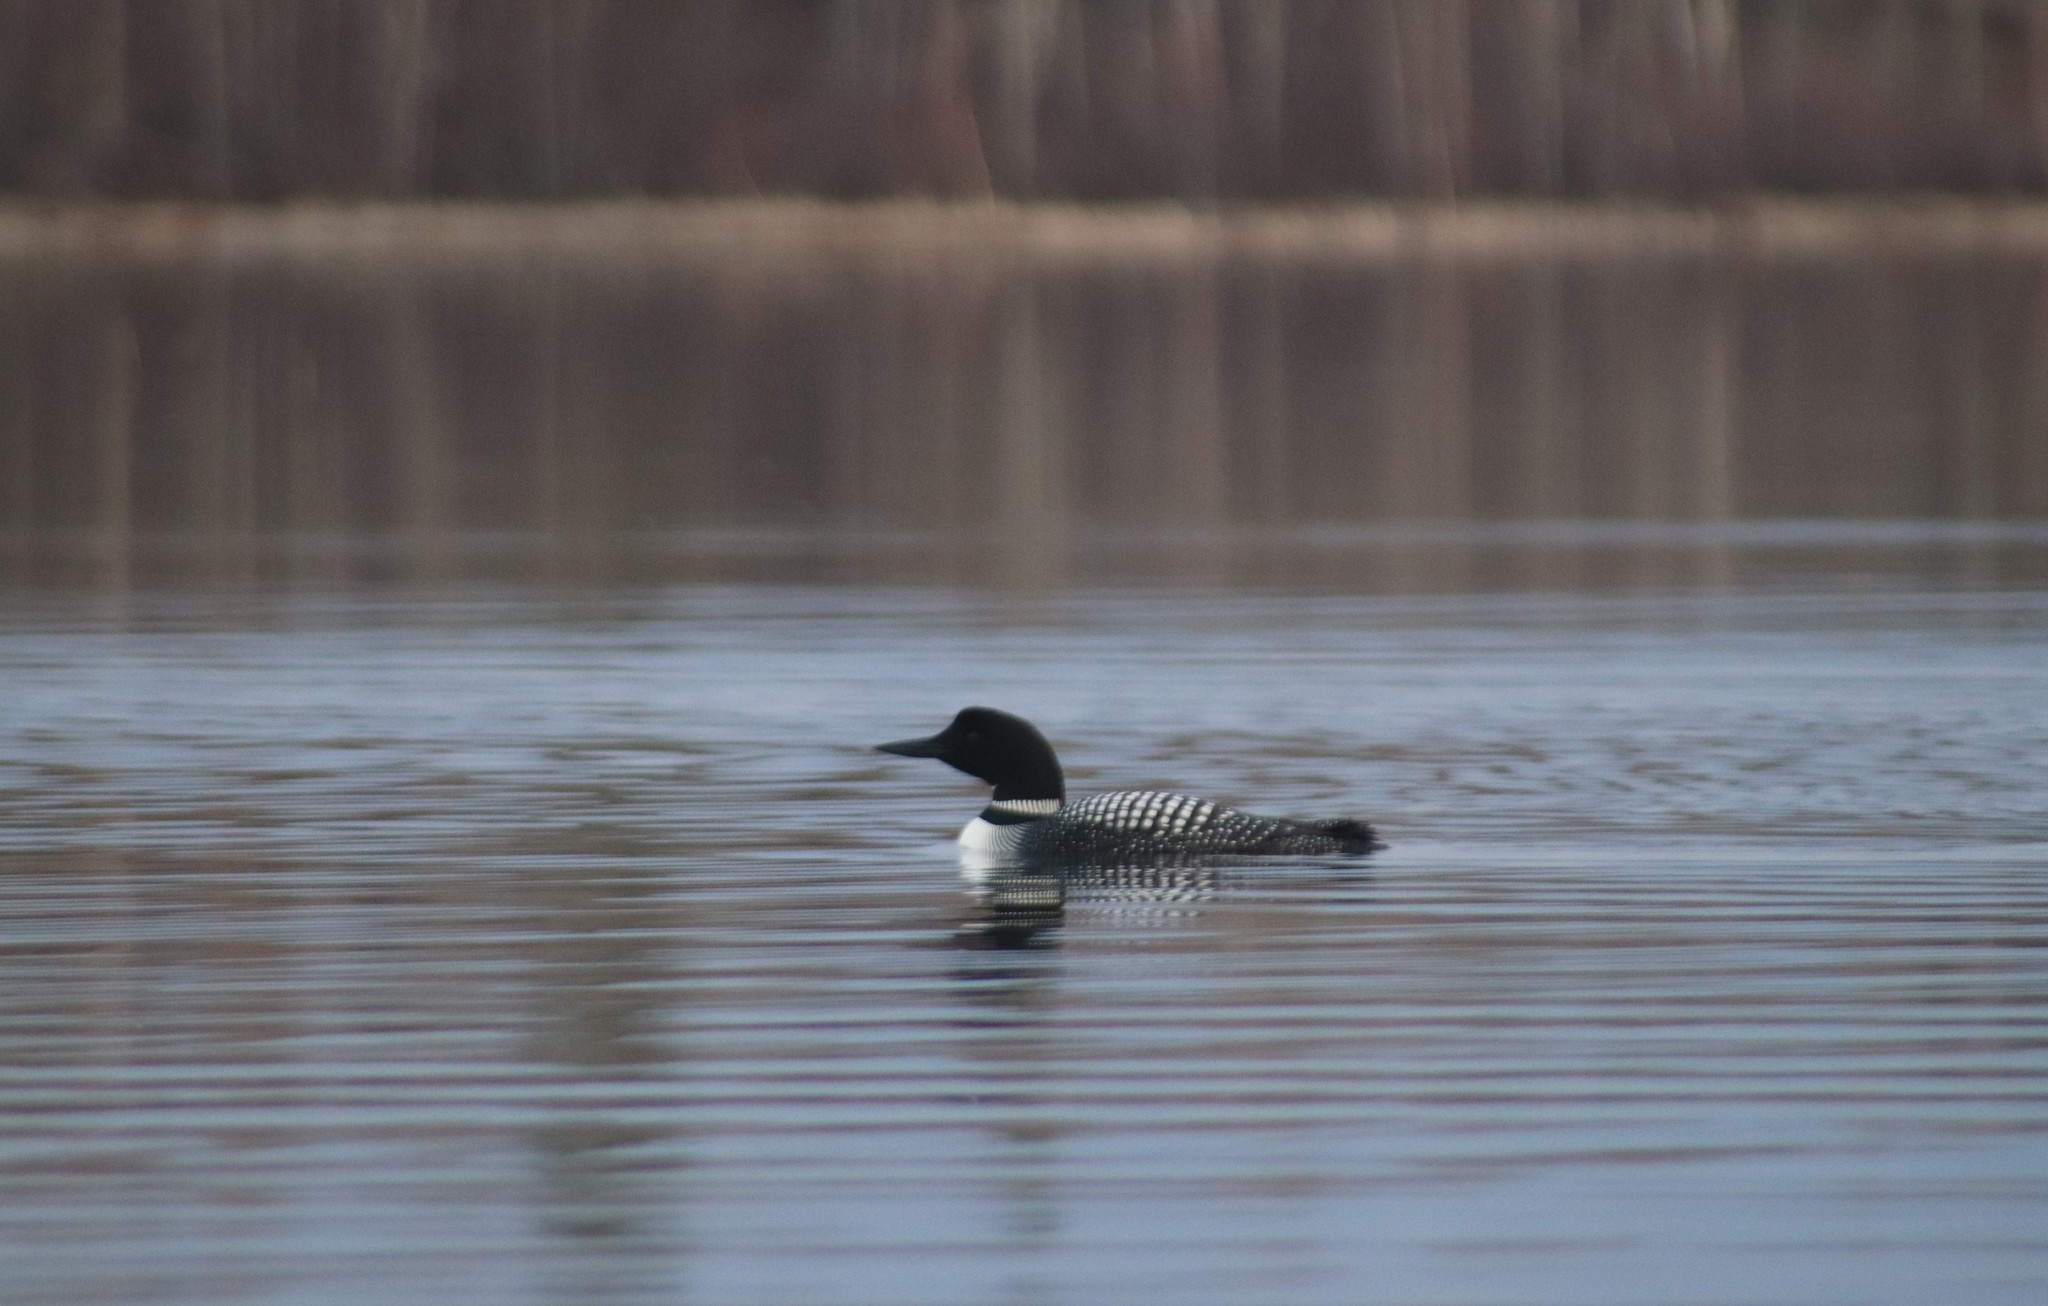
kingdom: Animalia
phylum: Chordata
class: Aves
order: Gaviiformes
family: Gaviidae
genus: Gavia
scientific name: Gavia immer
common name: Common loon
